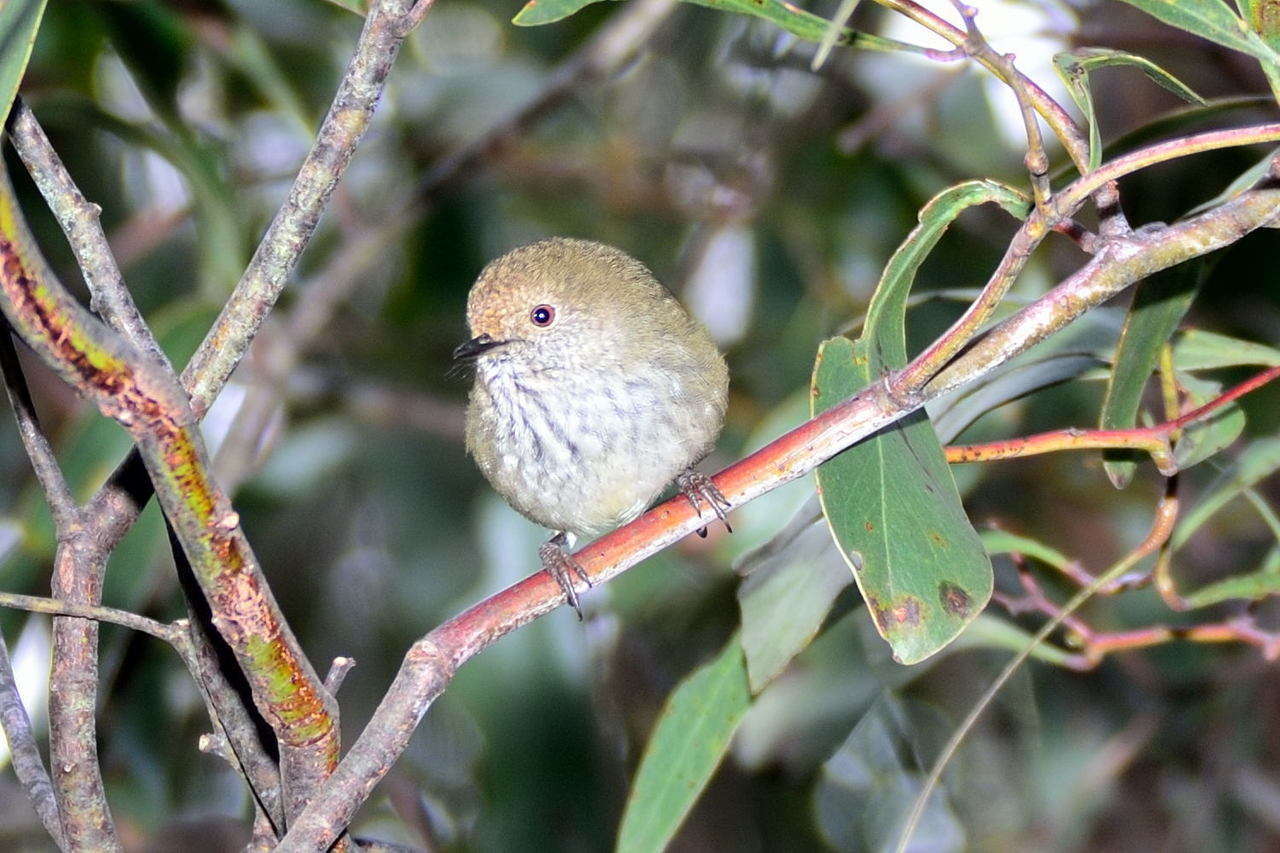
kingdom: Animalia
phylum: Chordata
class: Aves
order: Passeriformes
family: Acanthizidae
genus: Acanthiza
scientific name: Acanthiza pusilla
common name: Brown thornbill
